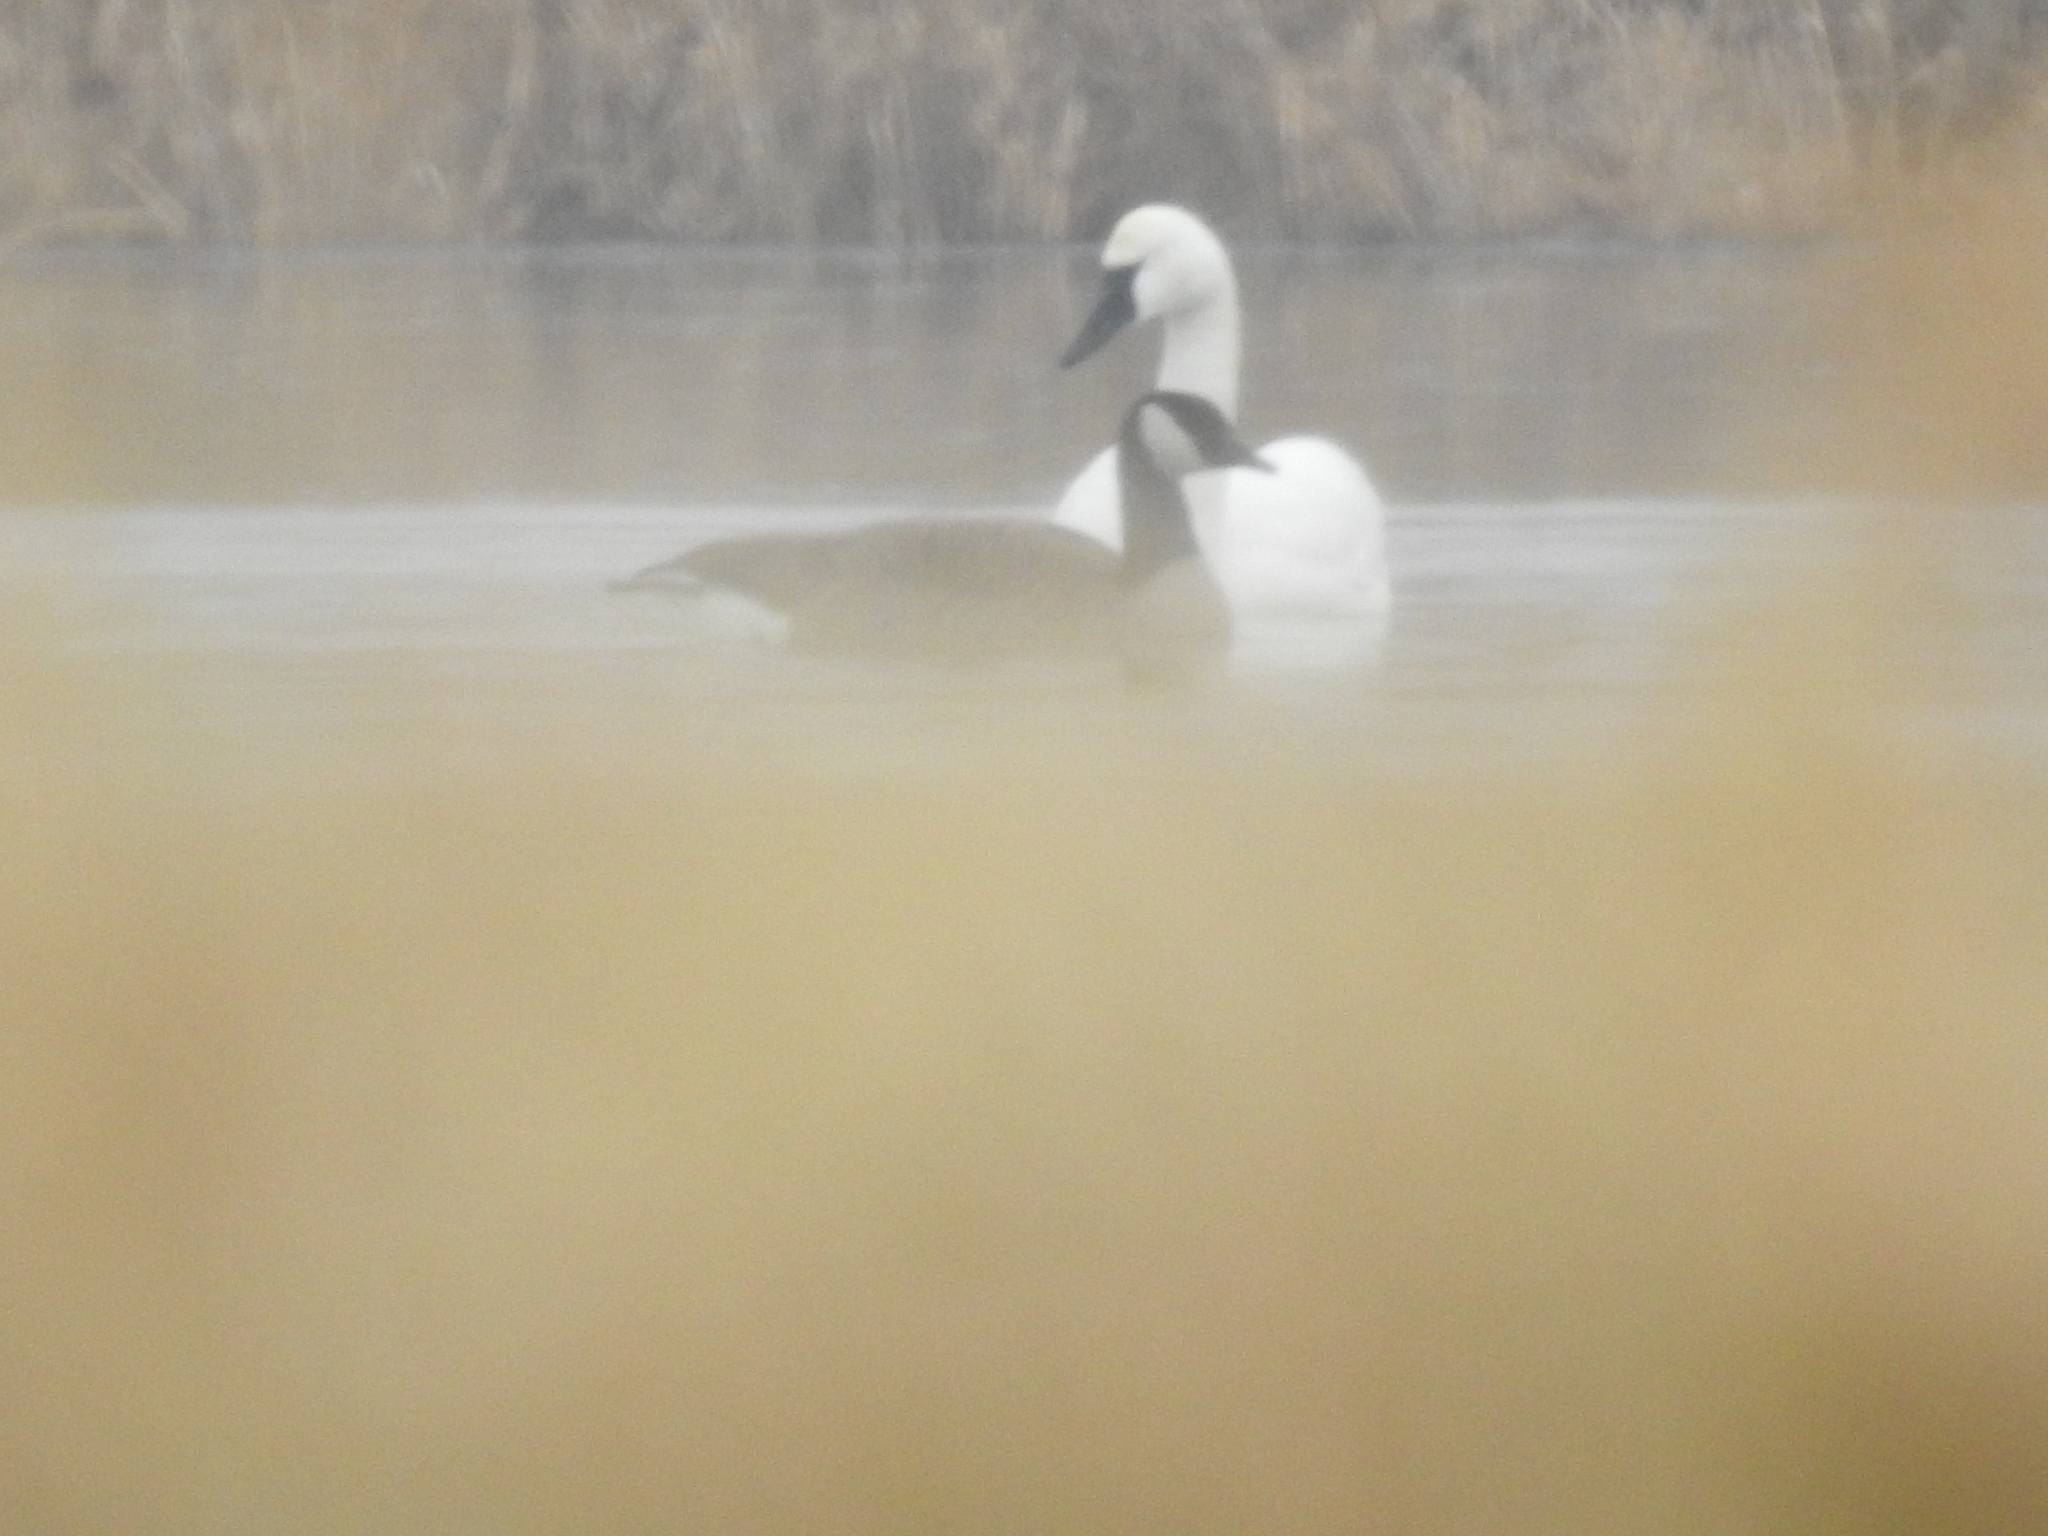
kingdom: Animalia
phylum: Chordata
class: Aves
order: Anseriformes
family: Anatidae
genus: Branta
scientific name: Branta canadensis
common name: Canada goose
